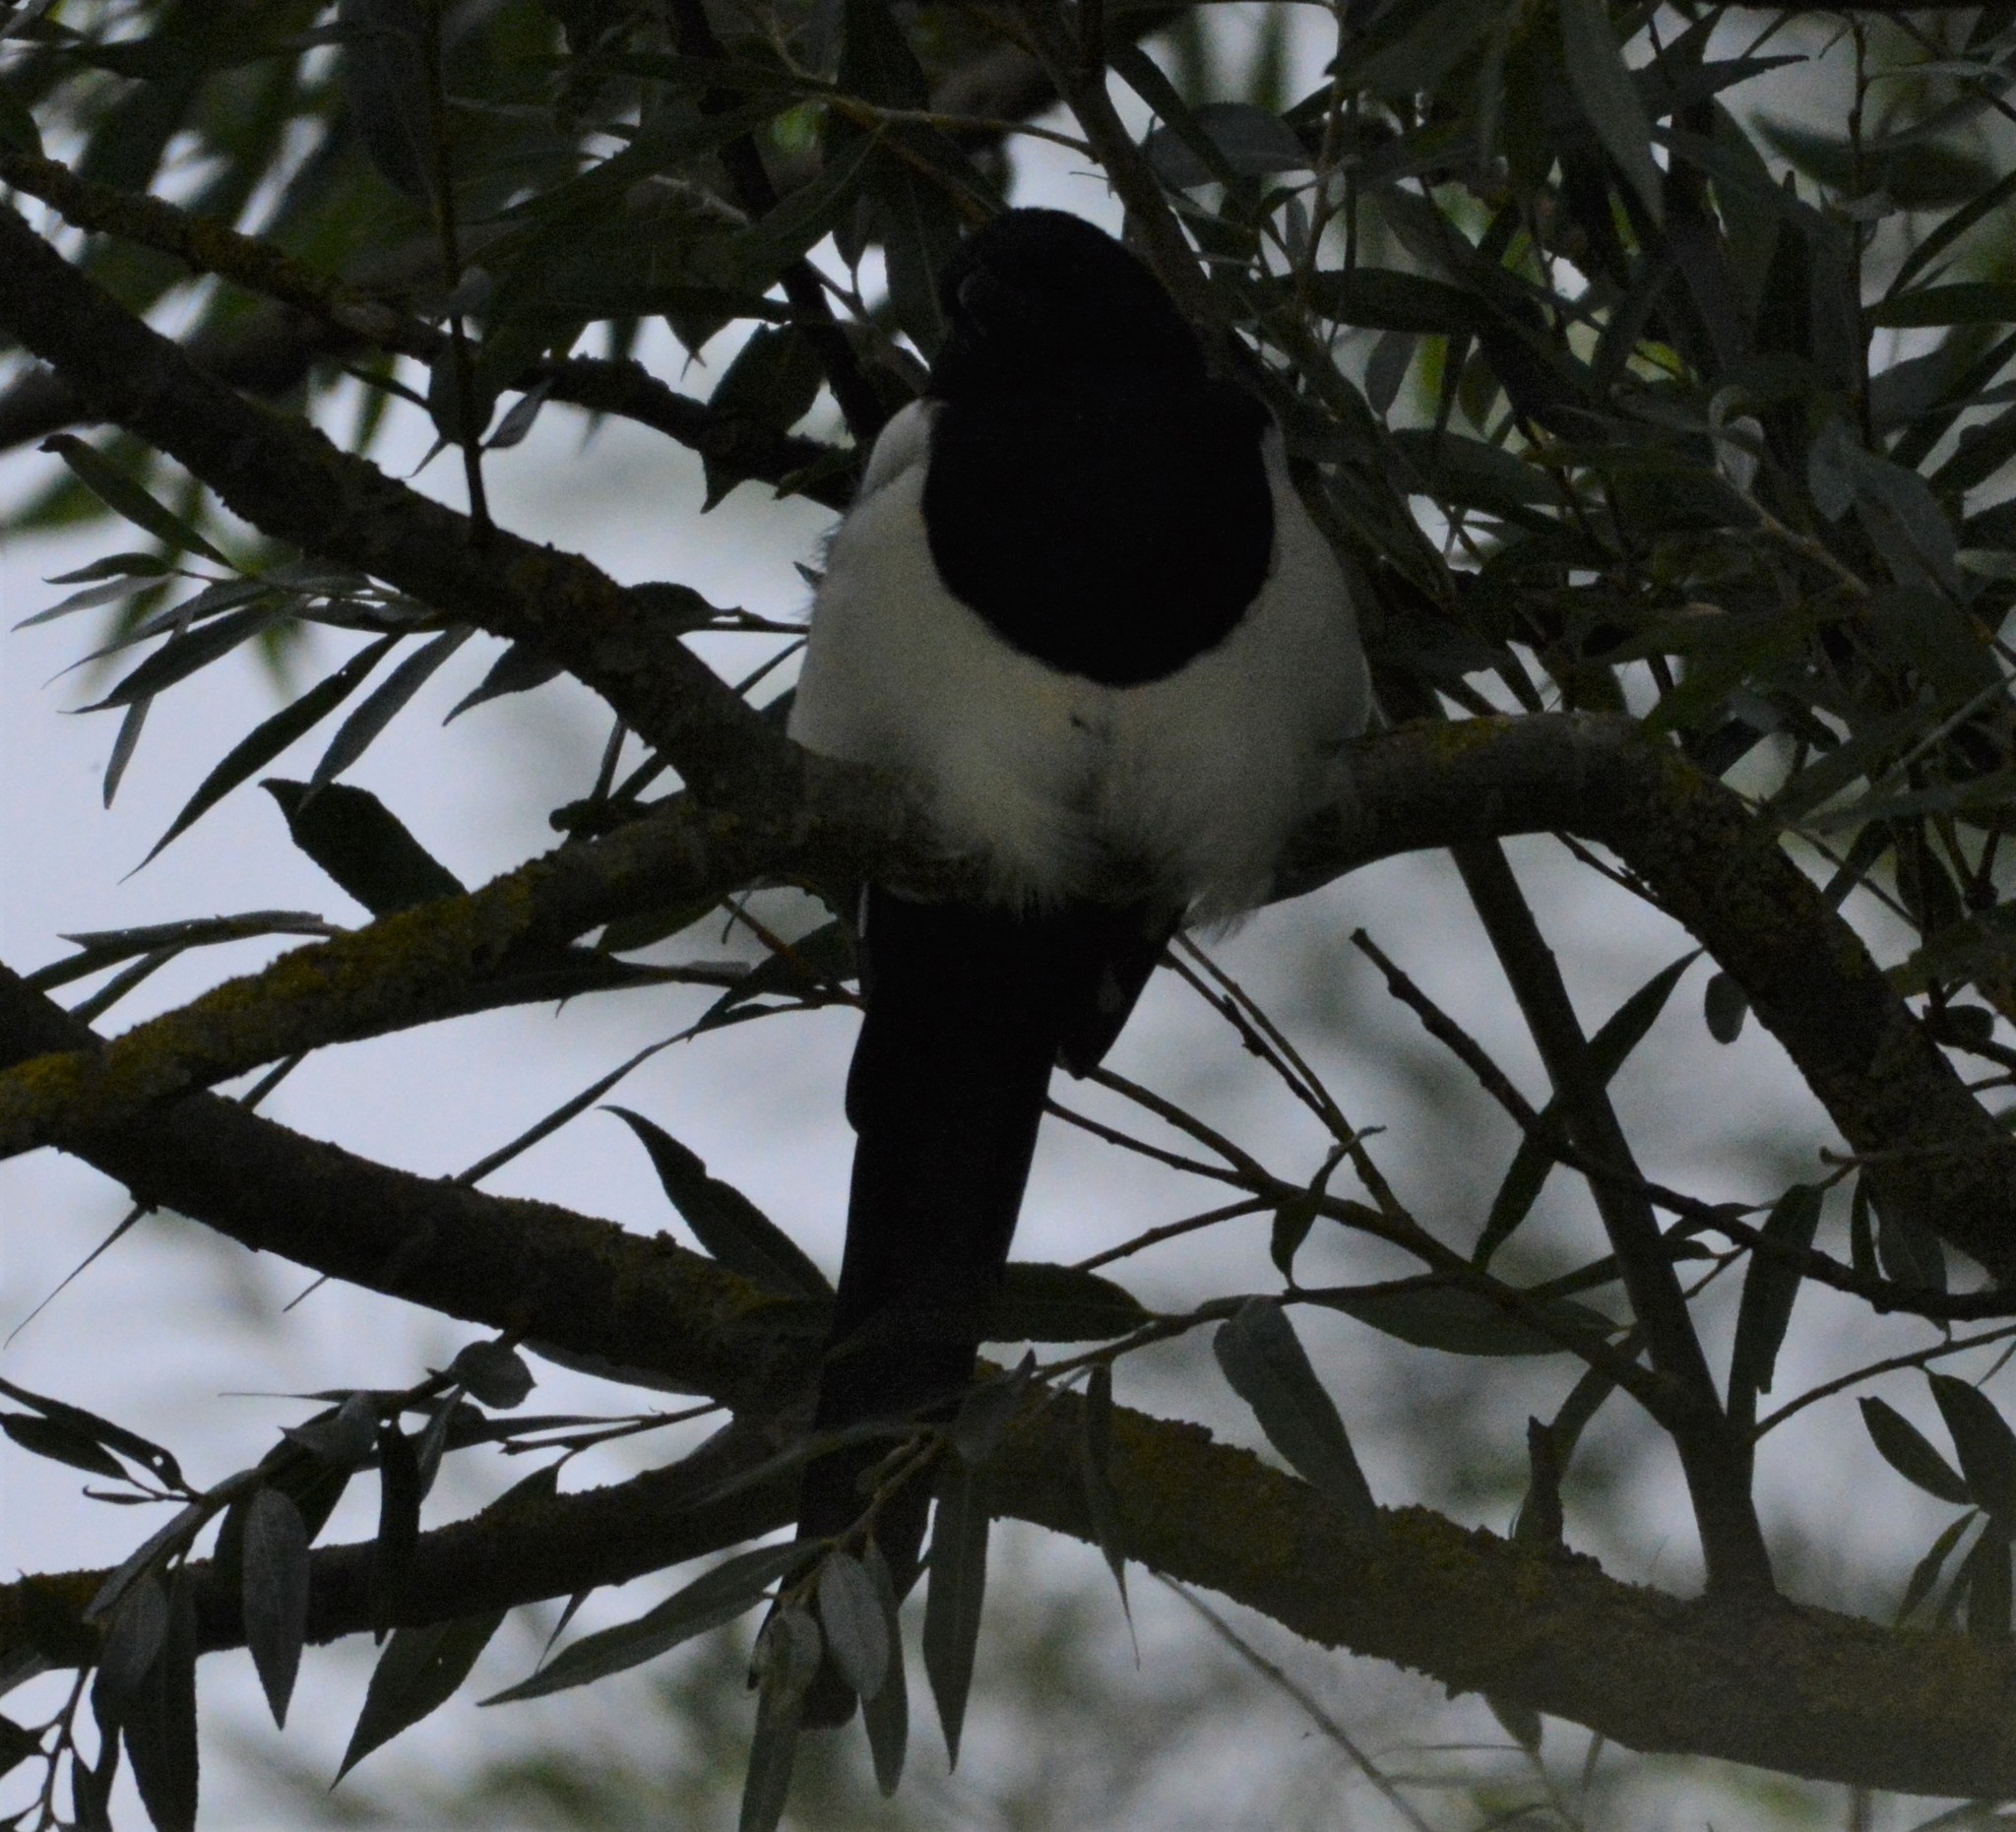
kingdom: Animalia
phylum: Chordata
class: Aves
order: Passeriformes
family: Corvidae
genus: Pica
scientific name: Pica pica
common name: Eurasian magpie
